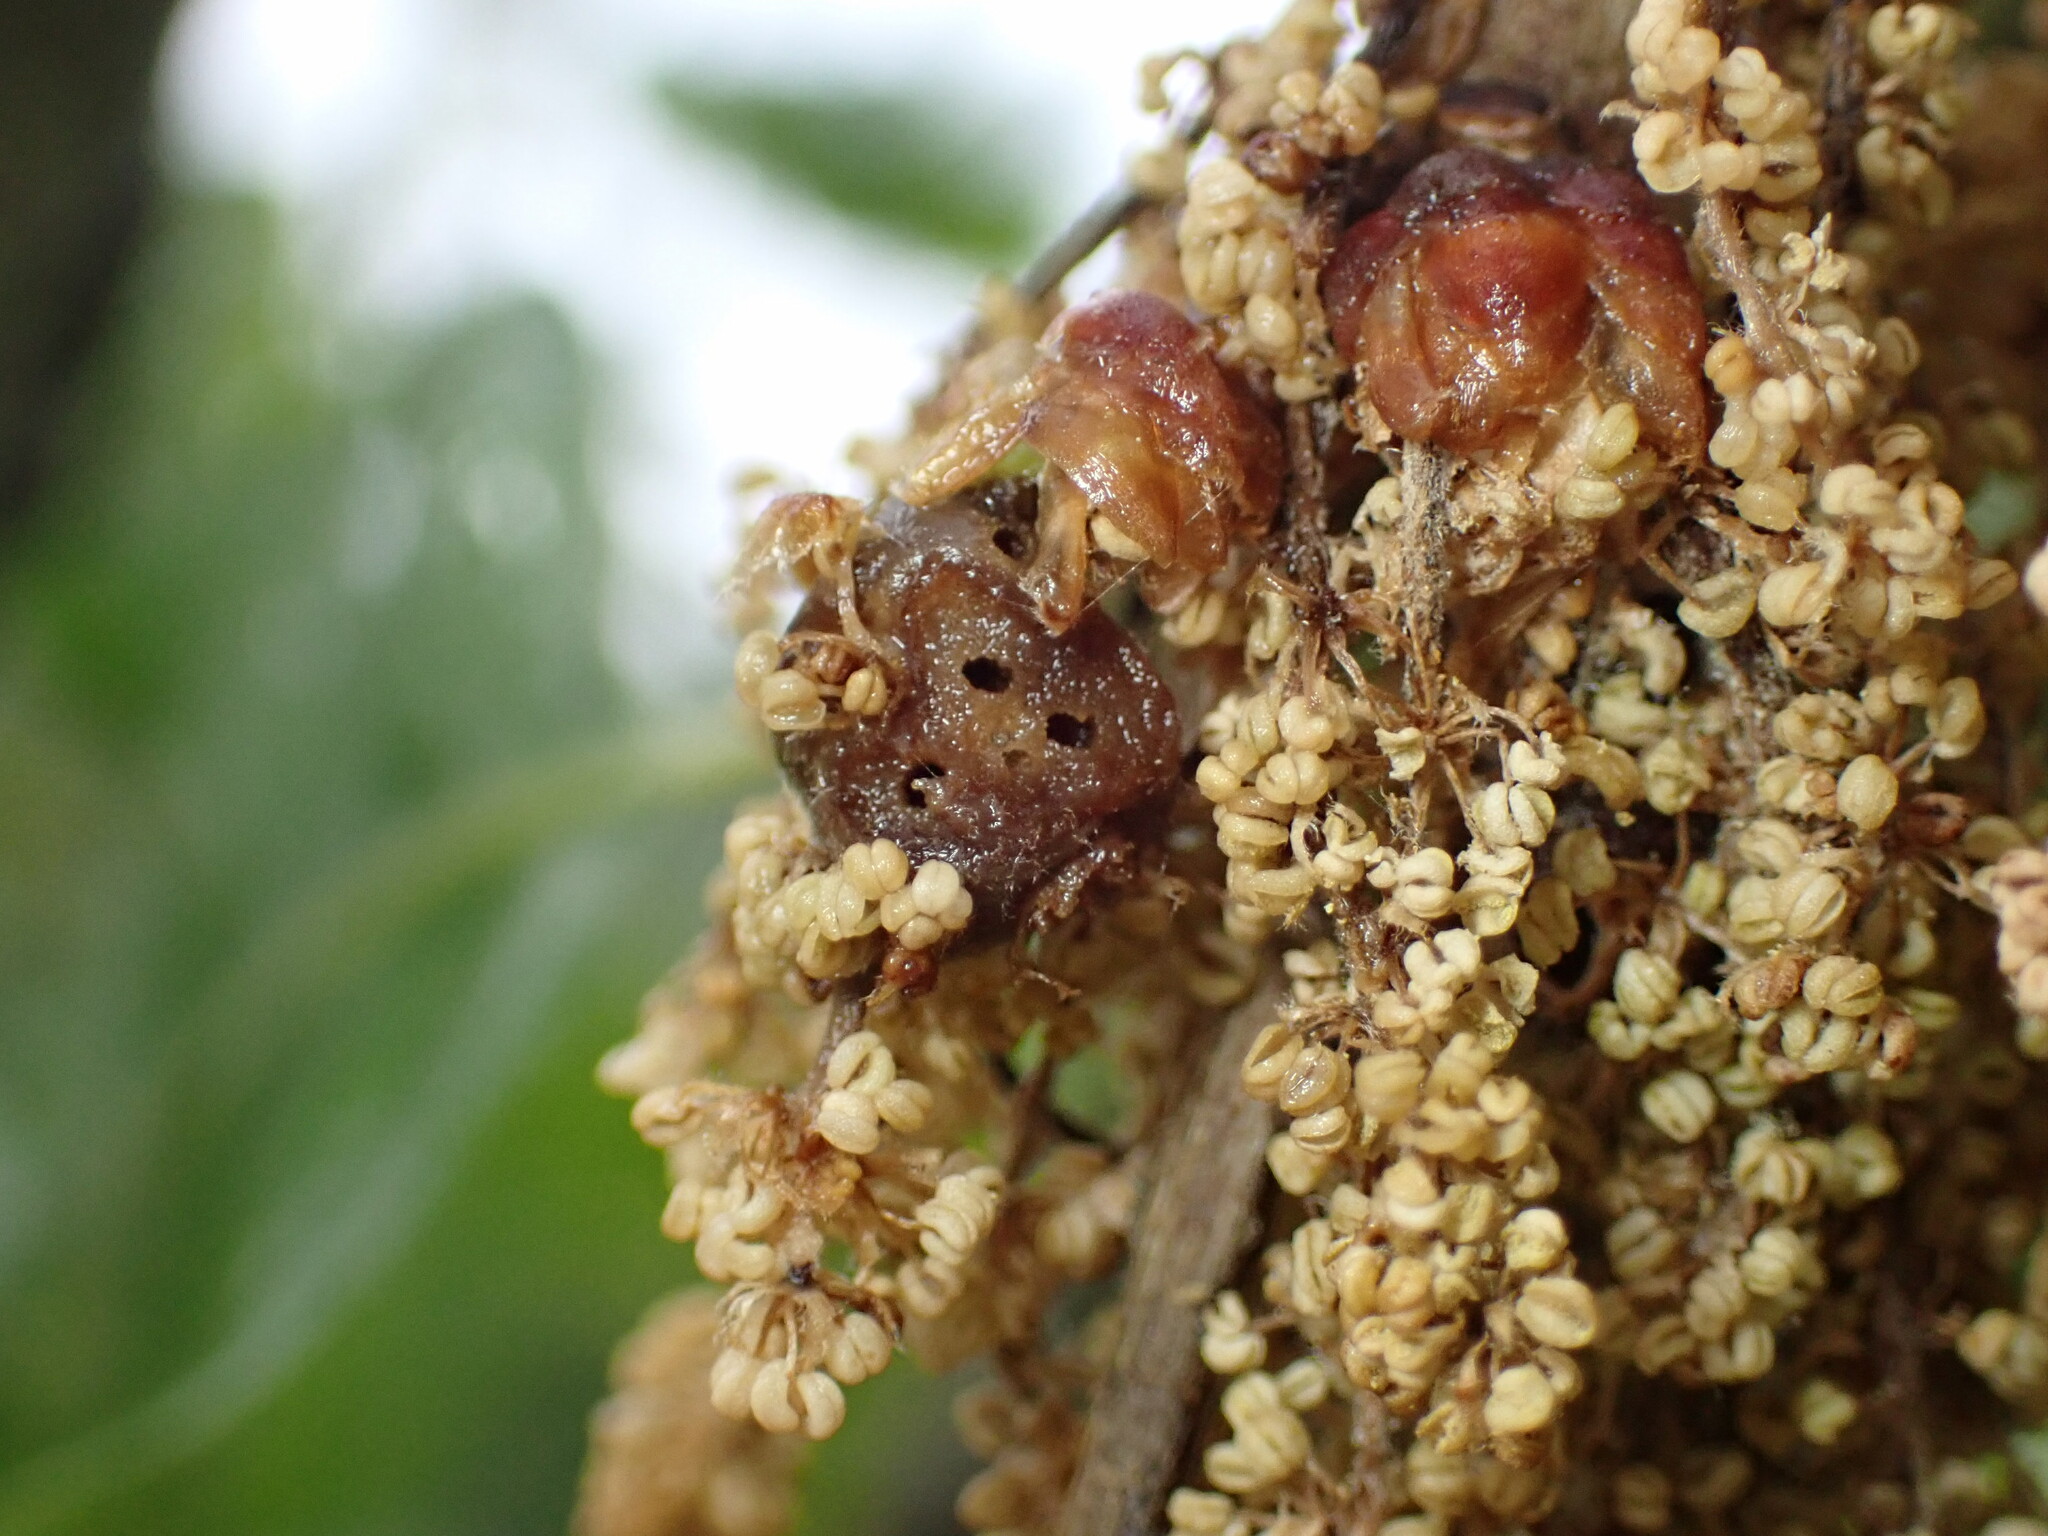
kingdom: Animalia
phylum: Arthropoda
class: Insecta
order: Hymenoptera
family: Cynipidae
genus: Callirhytis
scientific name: Callirhytis
